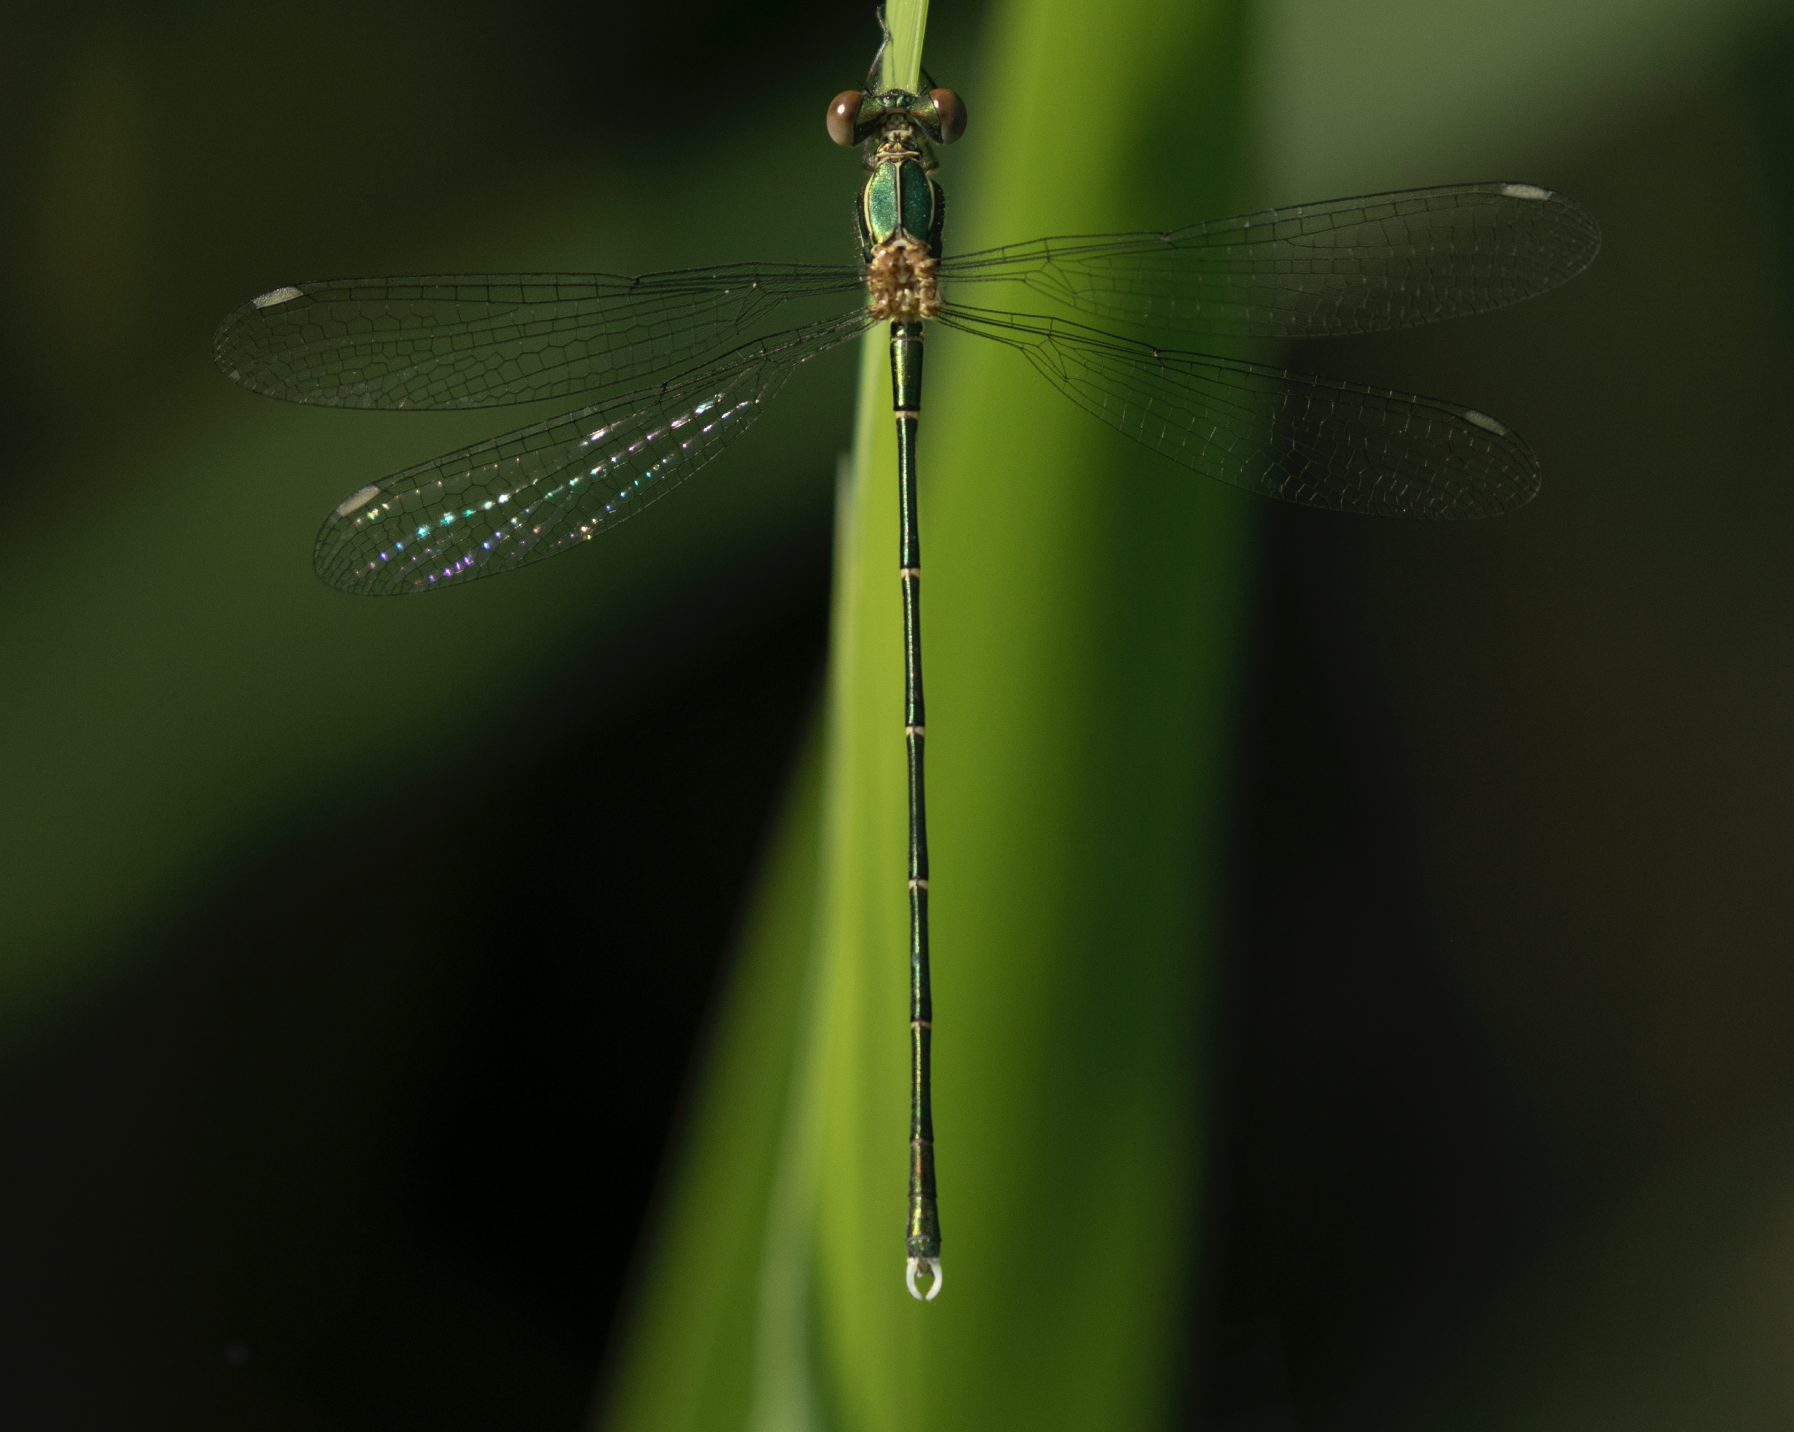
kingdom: Animalia
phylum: Arthropoda
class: Insecta
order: Odonata
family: Lestidae
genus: Chalcolestes
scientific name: Chalcolestes parvidens
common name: Eastern willow spreadwing
